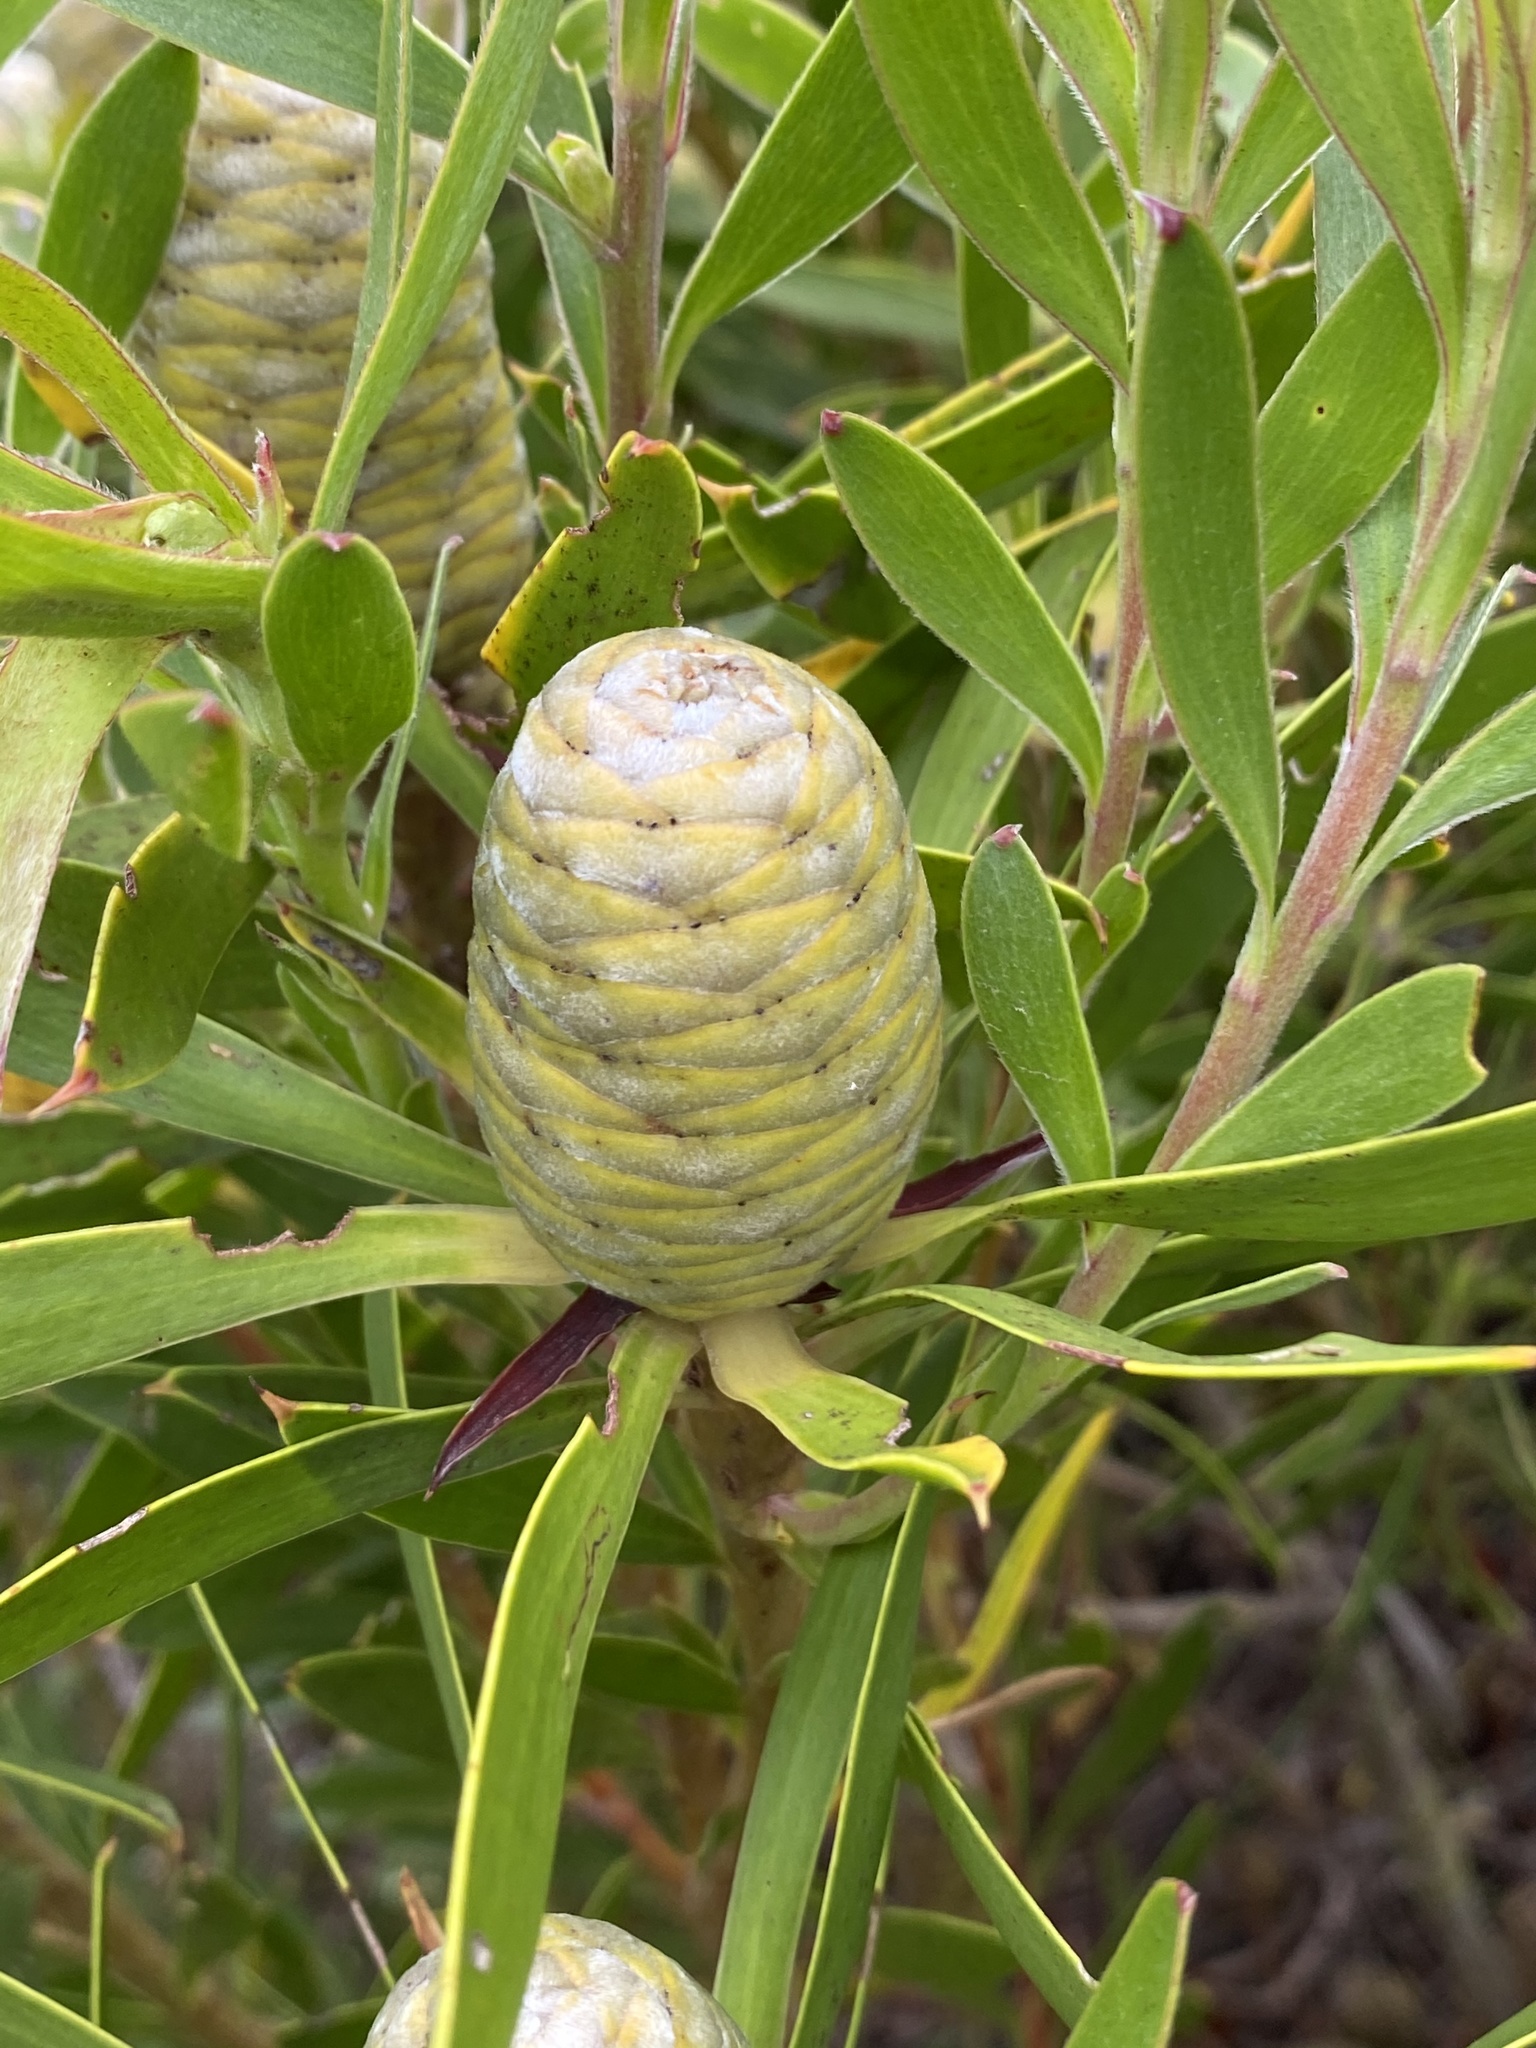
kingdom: Plantae
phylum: Tracheophyta
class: Magnoliopsida
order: Proteales
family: Proteaceae
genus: Leucadendron
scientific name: Leucadendron coniferum
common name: Dune conebush
